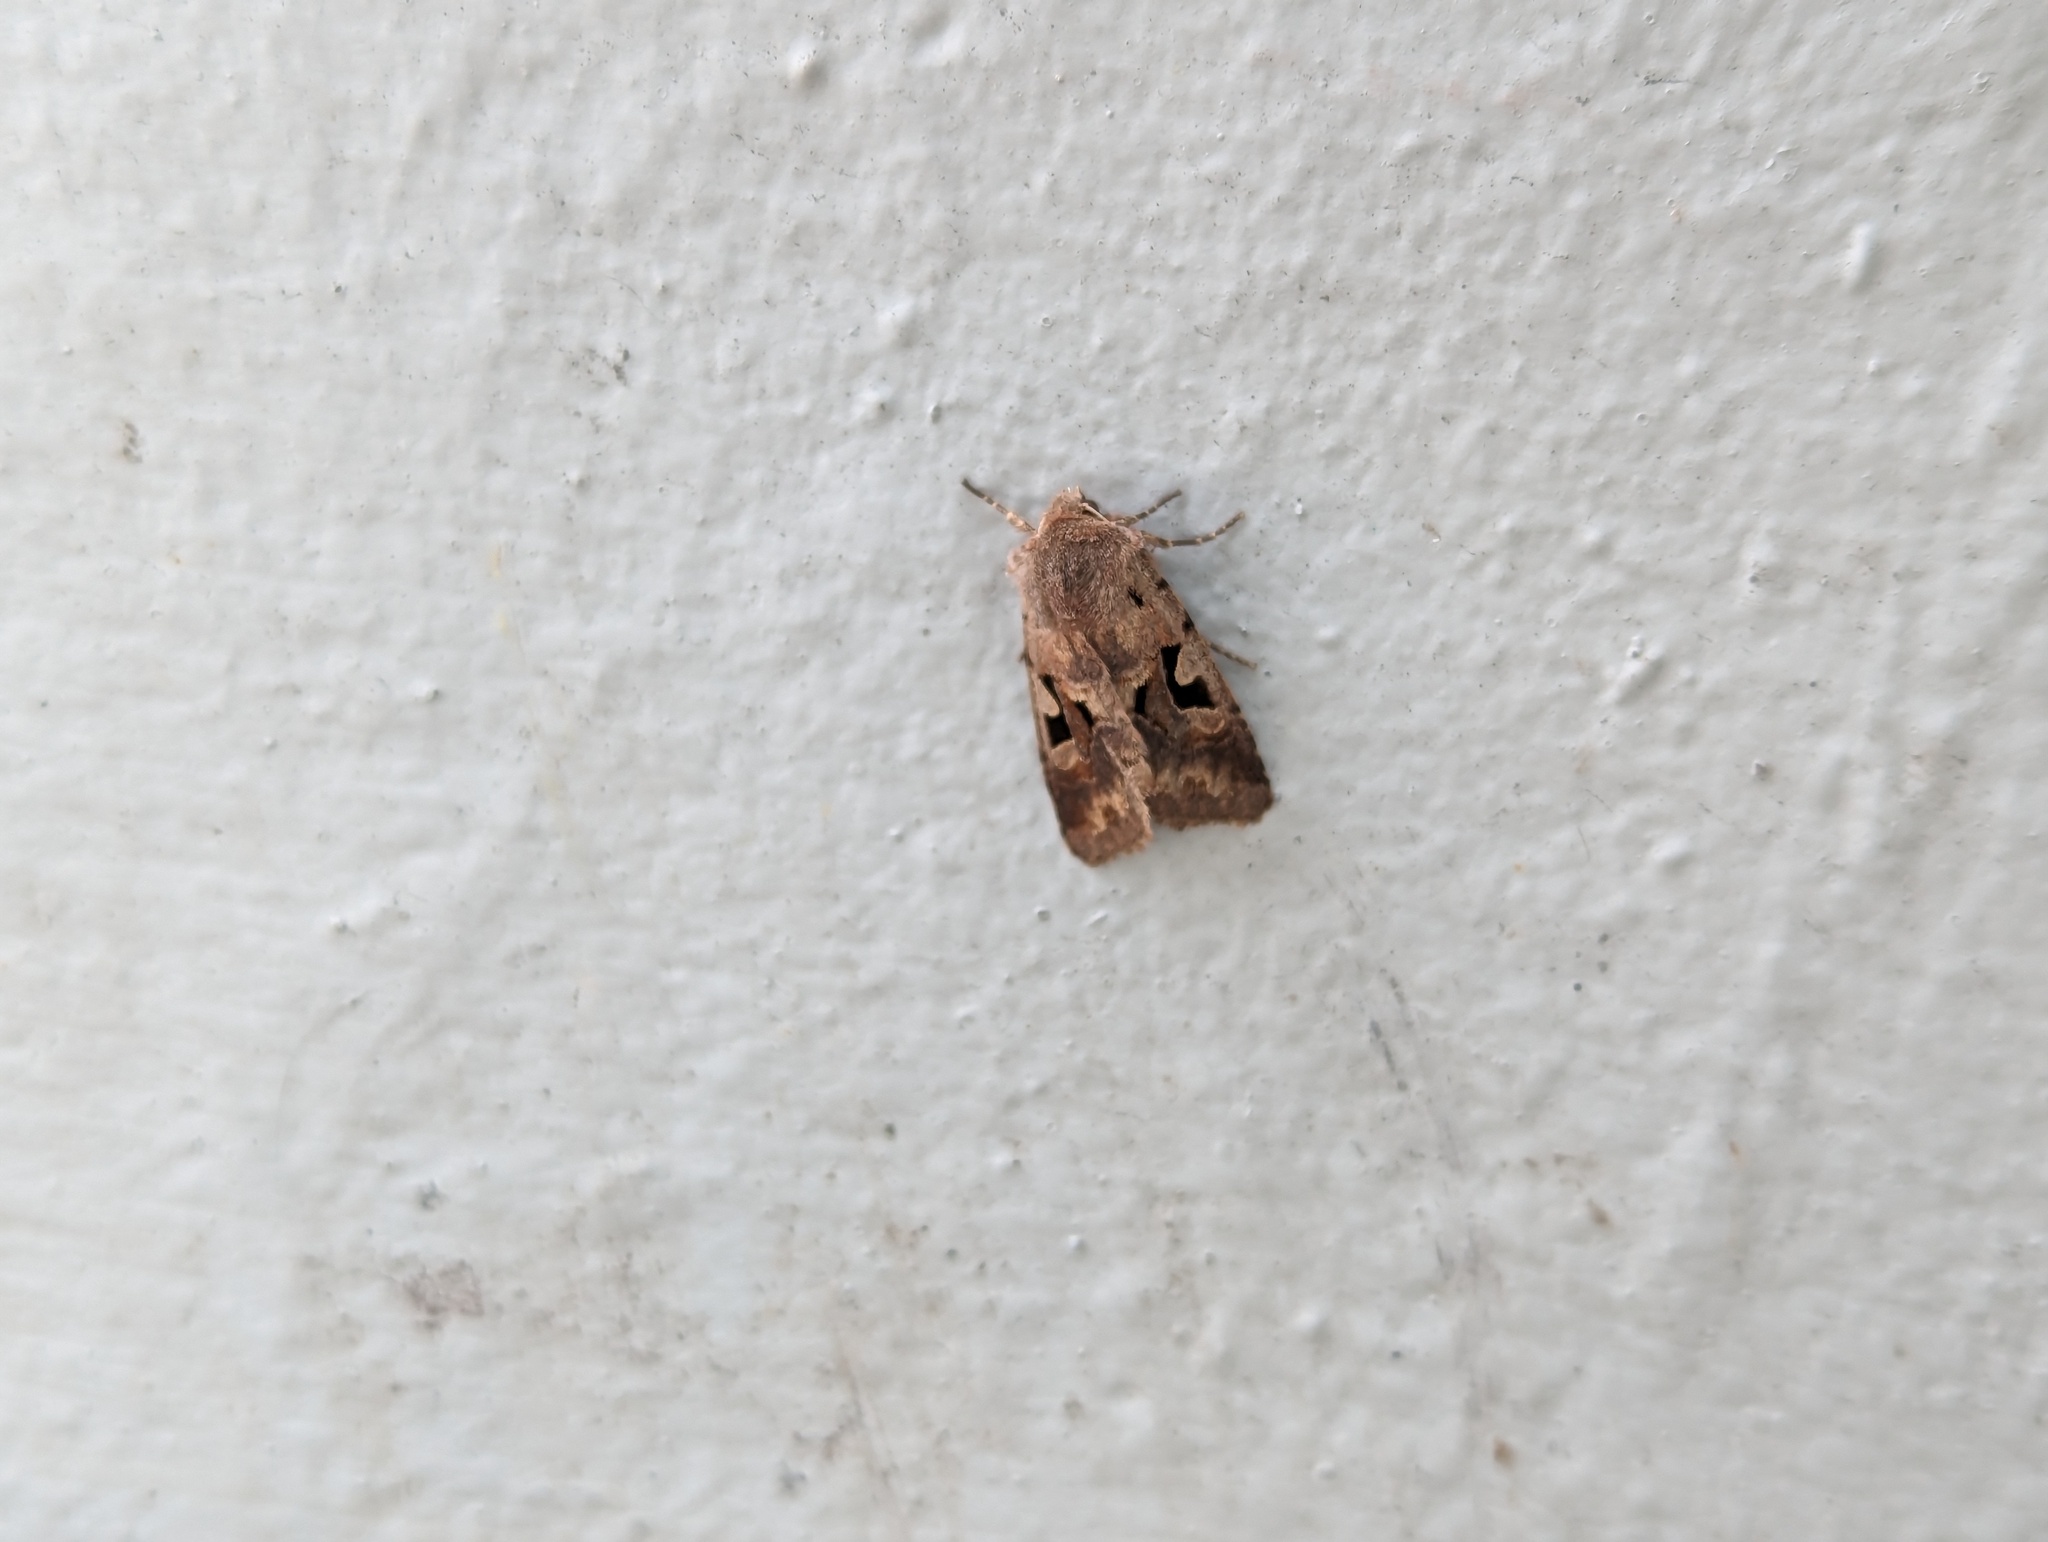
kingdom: Animalia
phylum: Arthropoda
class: Insecta
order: Lepidoptera
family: Noctuidae
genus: Orthosia
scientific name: Orthosia gothica
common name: Hebrew character
